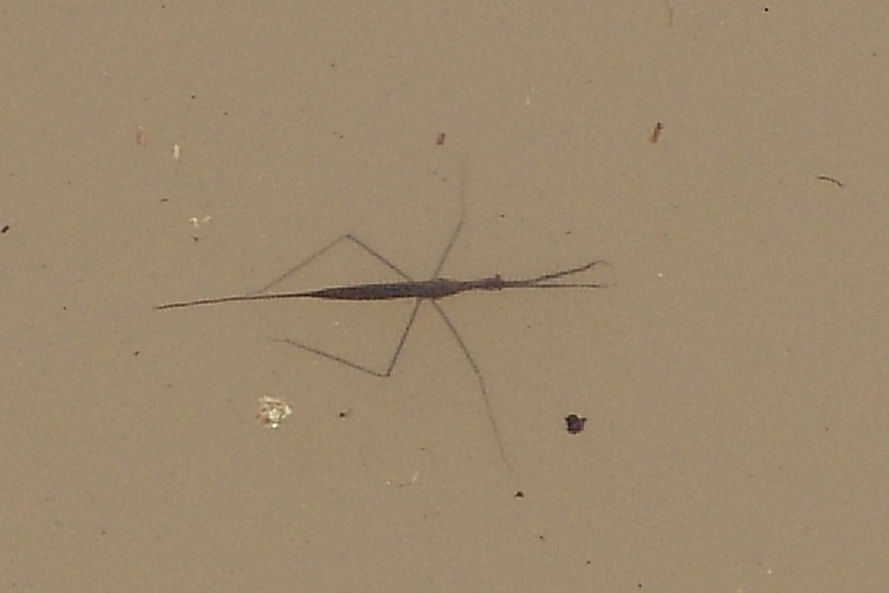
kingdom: Animalia
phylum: Arthropoda
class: Insecta
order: Hemiptera
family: Nepidae
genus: Ranatra
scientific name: Ranatra
